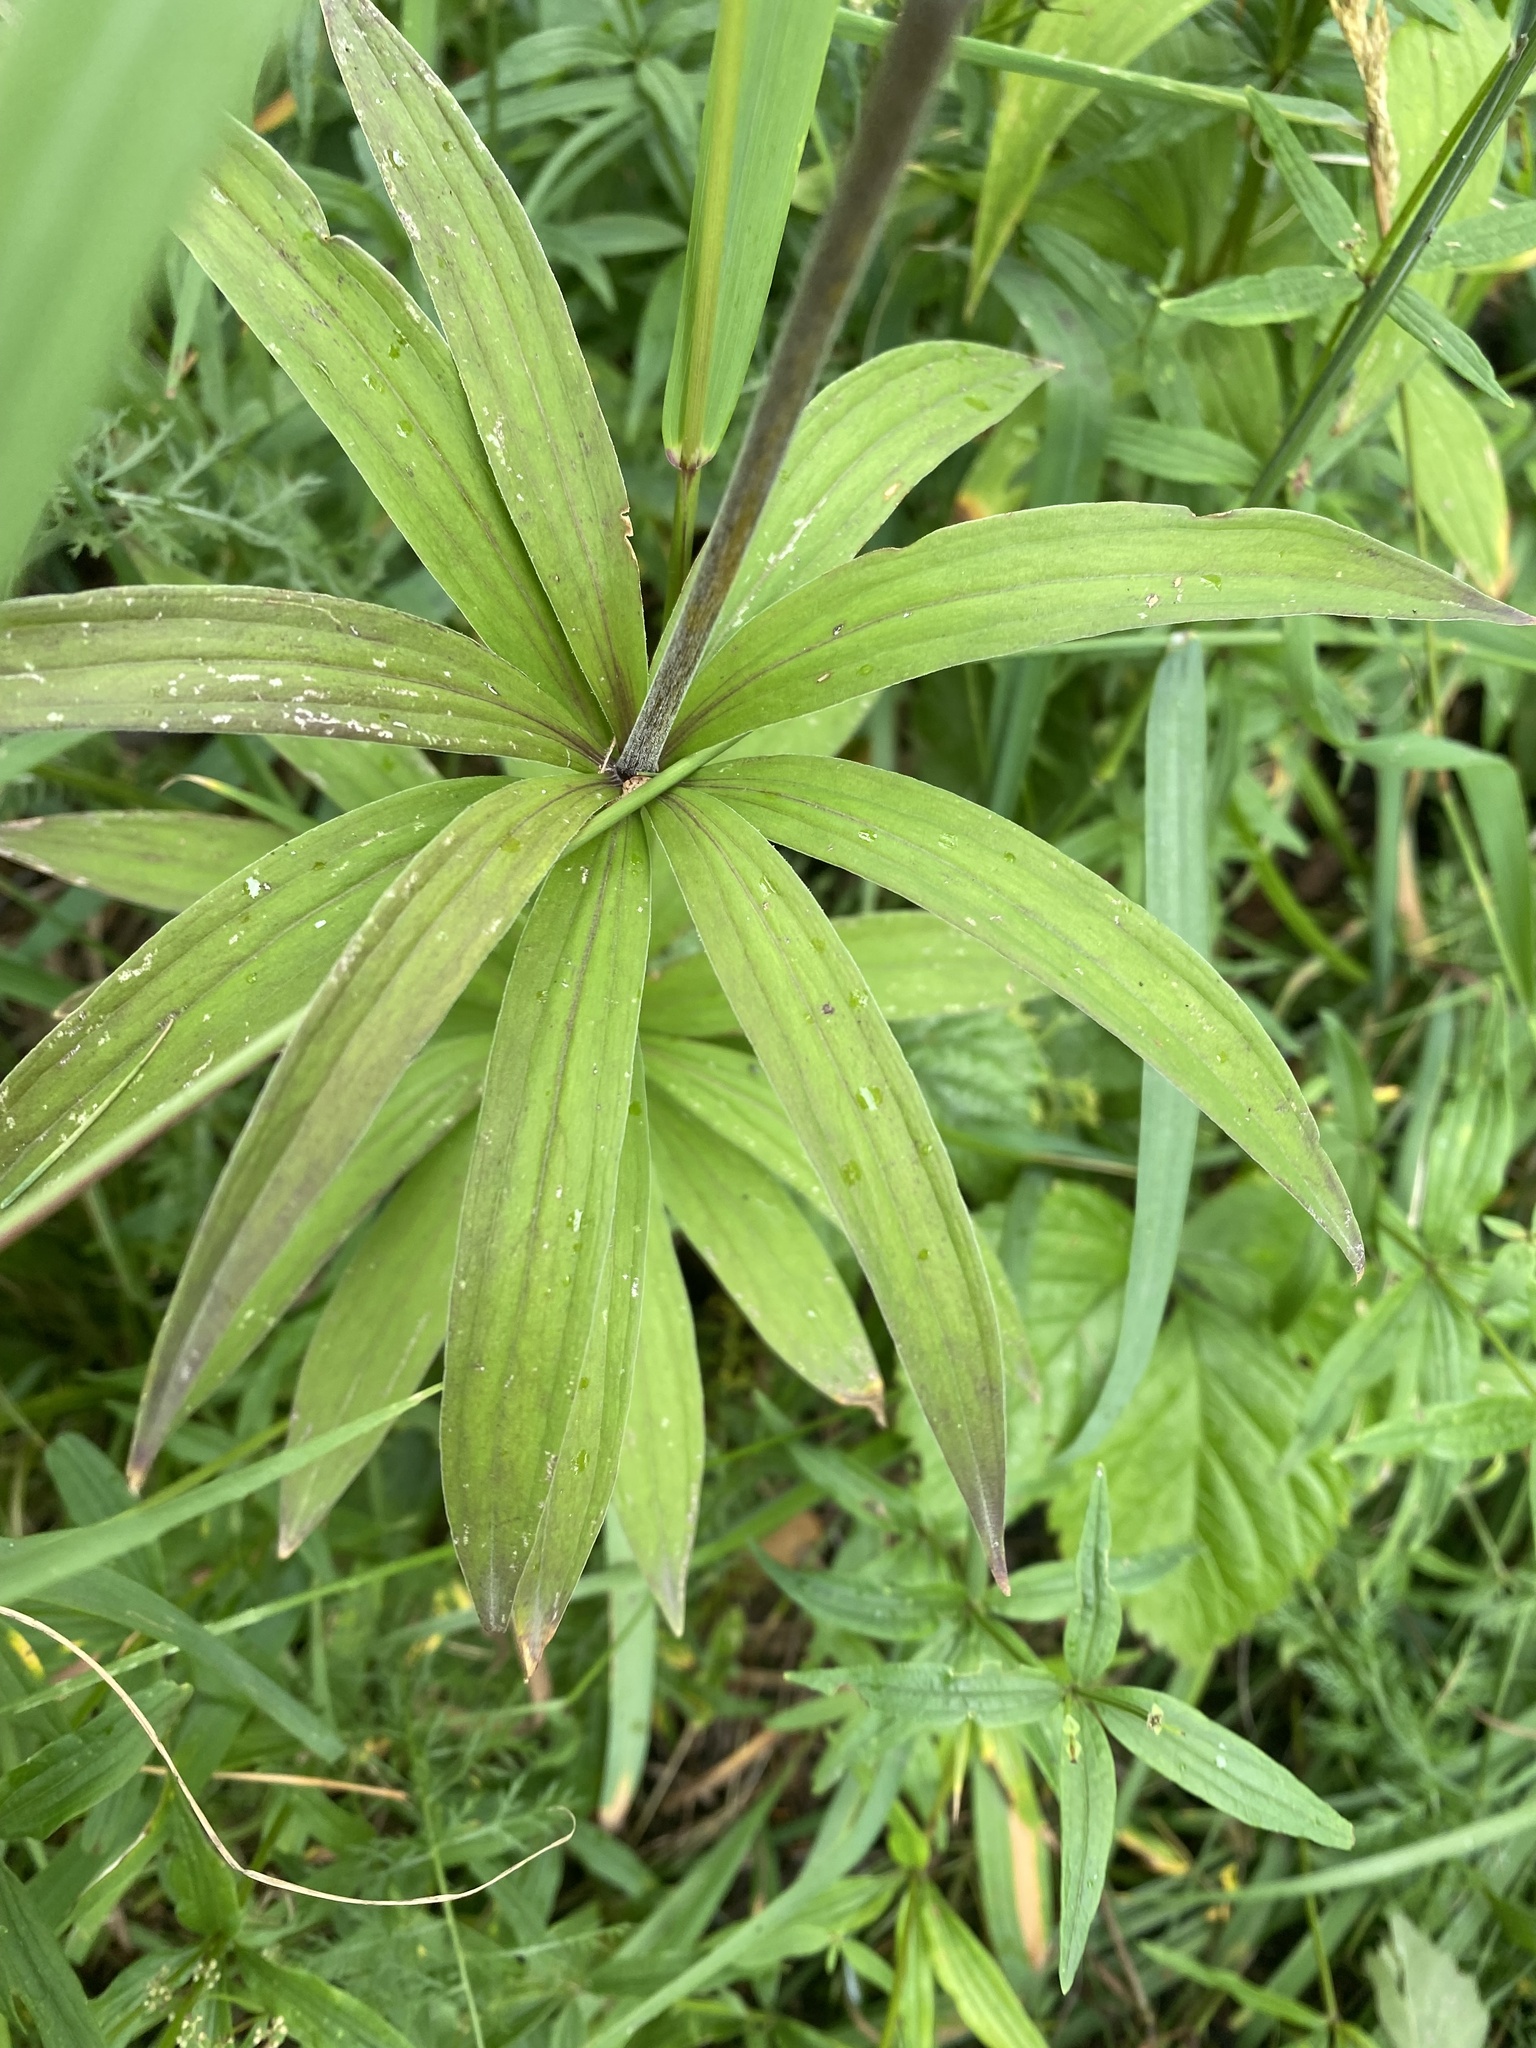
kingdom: Plantae
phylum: Tracheophyta
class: Liliopsida
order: Liliales
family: Liliaceae
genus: Lilium
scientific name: Lilium martagon
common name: Martagon lily
